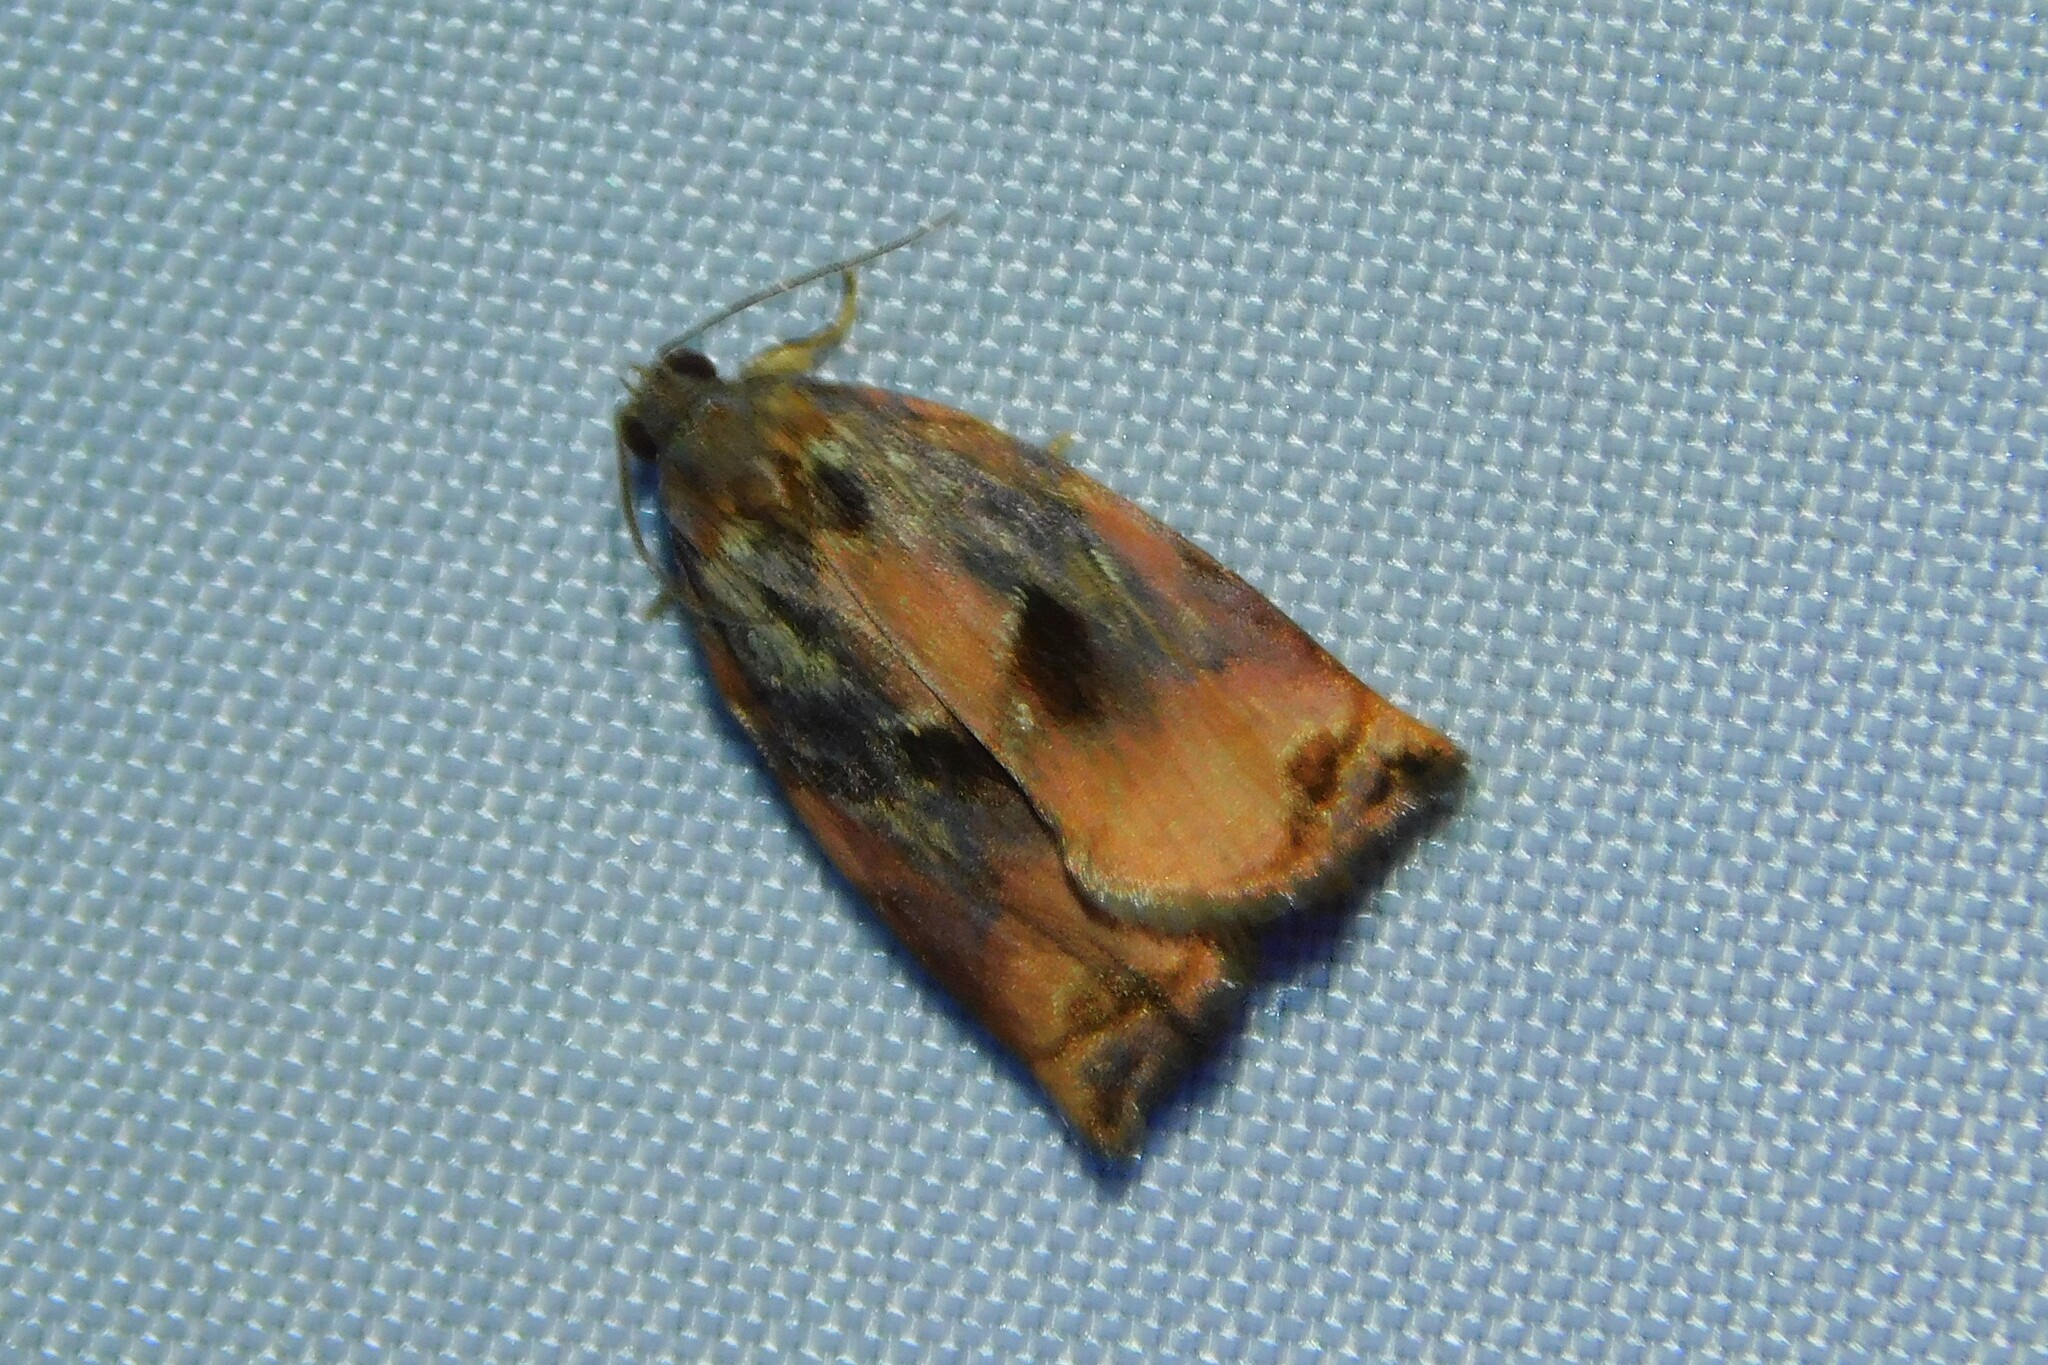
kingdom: Animalia
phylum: Arthropoda
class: Insecta
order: Lepidoptera
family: Tortricidae
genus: Archips
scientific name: Archips podana
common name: Large fruit-tree tortrix
